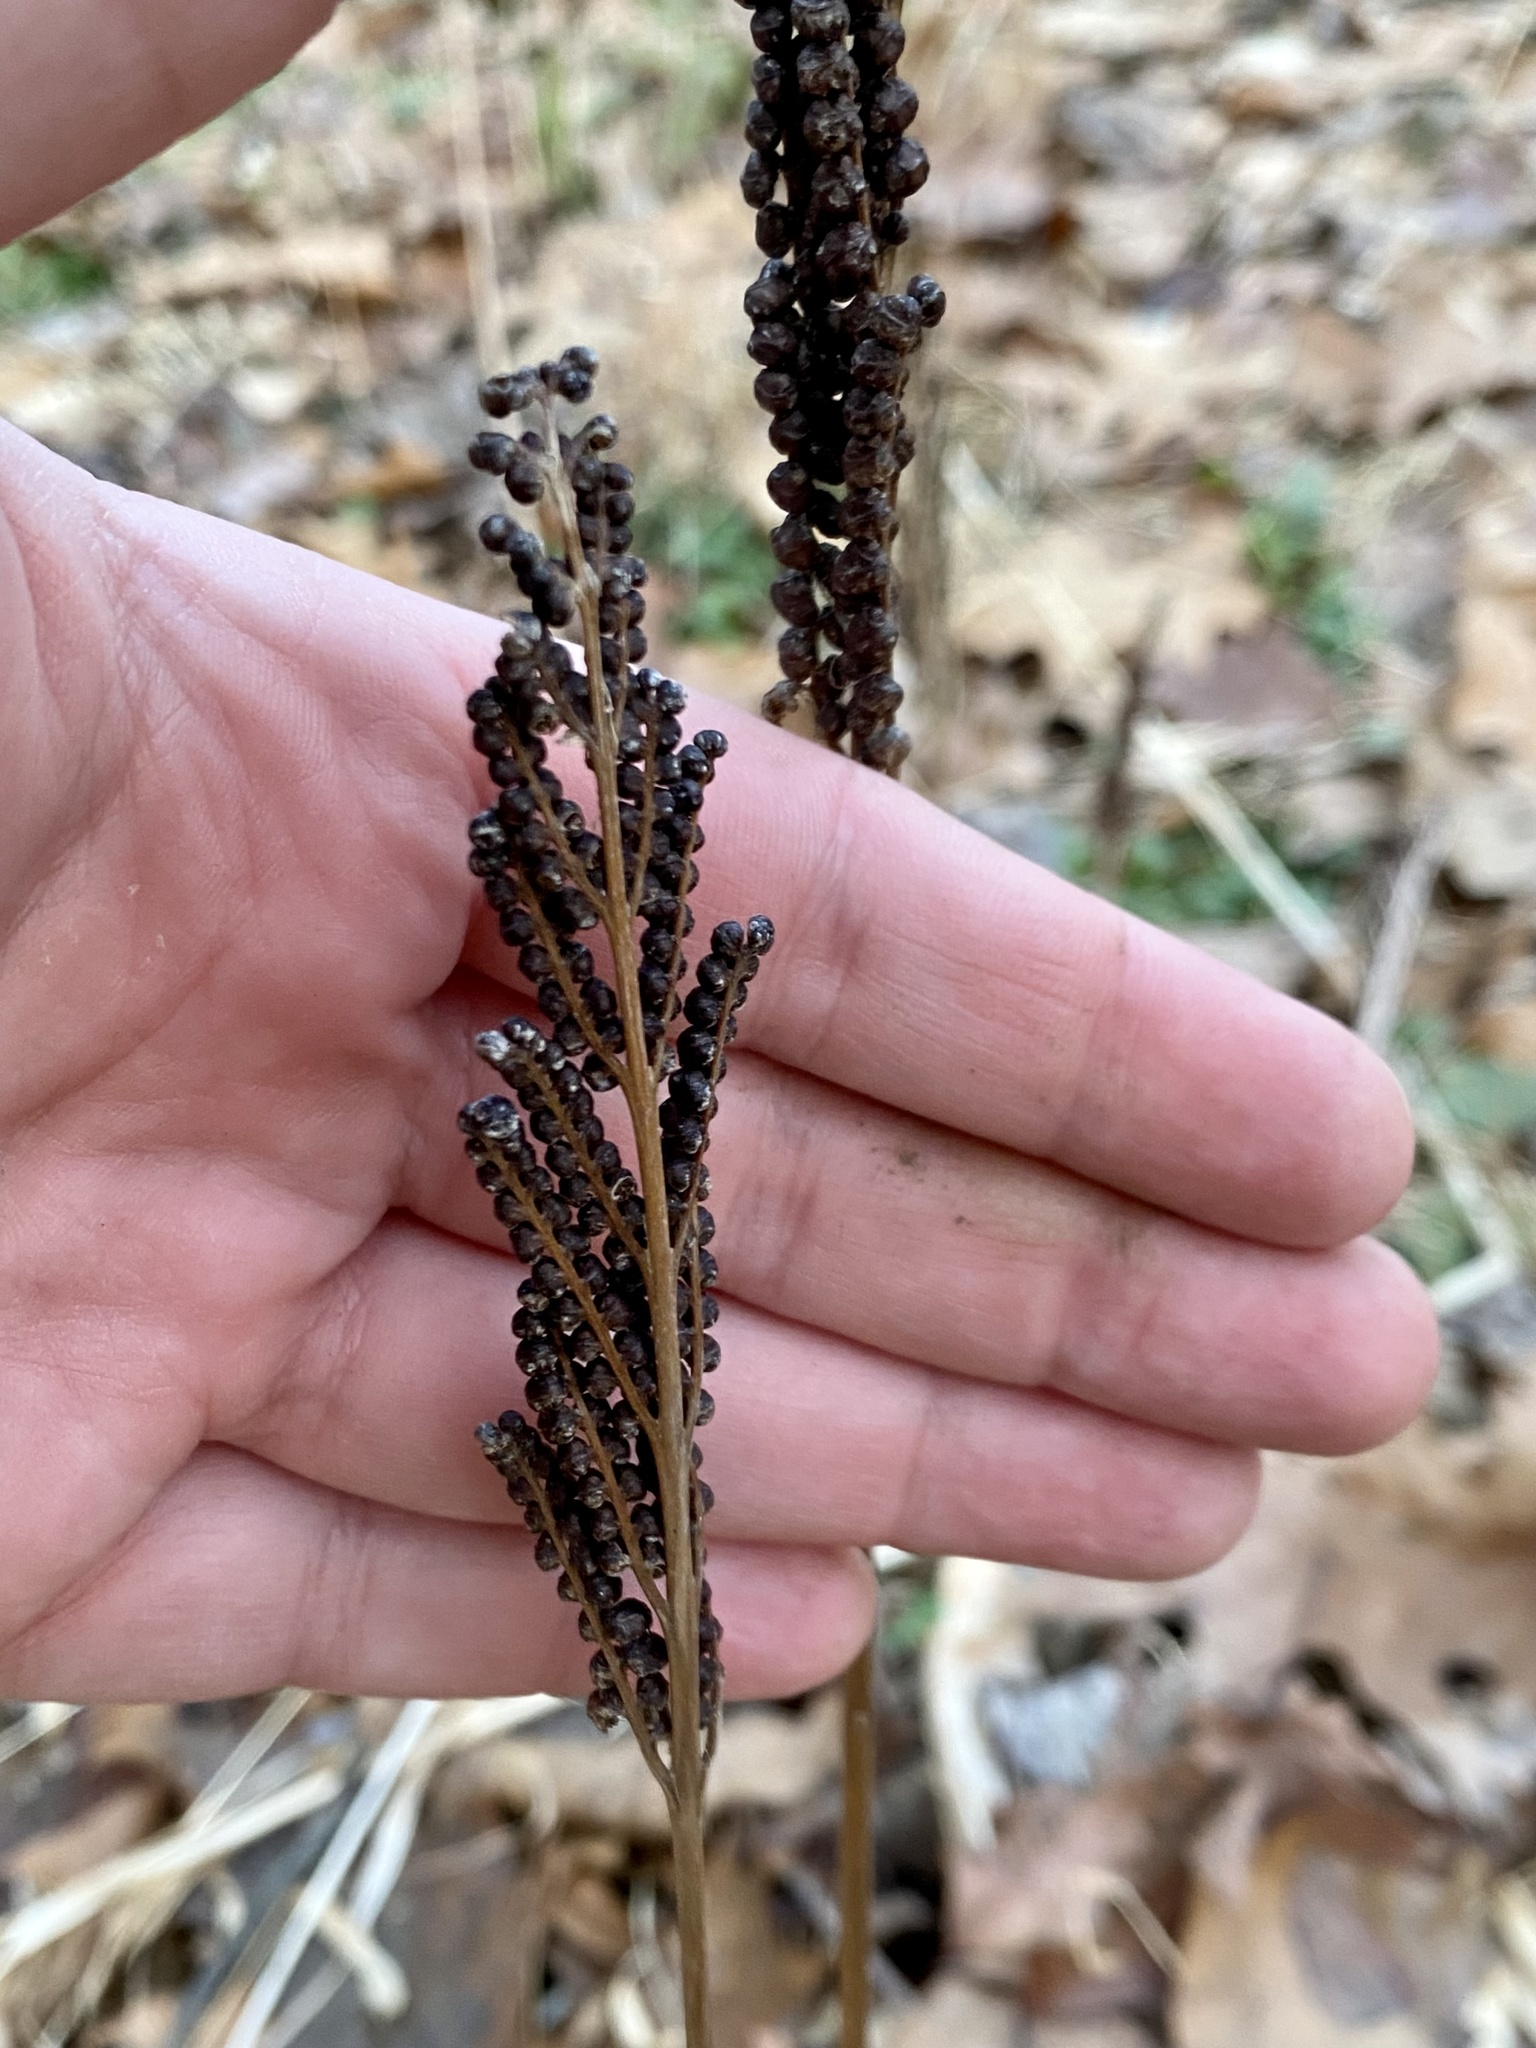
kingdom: Plantae
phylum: Tracheophyta
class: Polypodiopsida
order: Polypodiales
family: Onocleaceae
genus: Onoclea
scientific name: Onoclea sensibilis
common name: Sensitive fern
